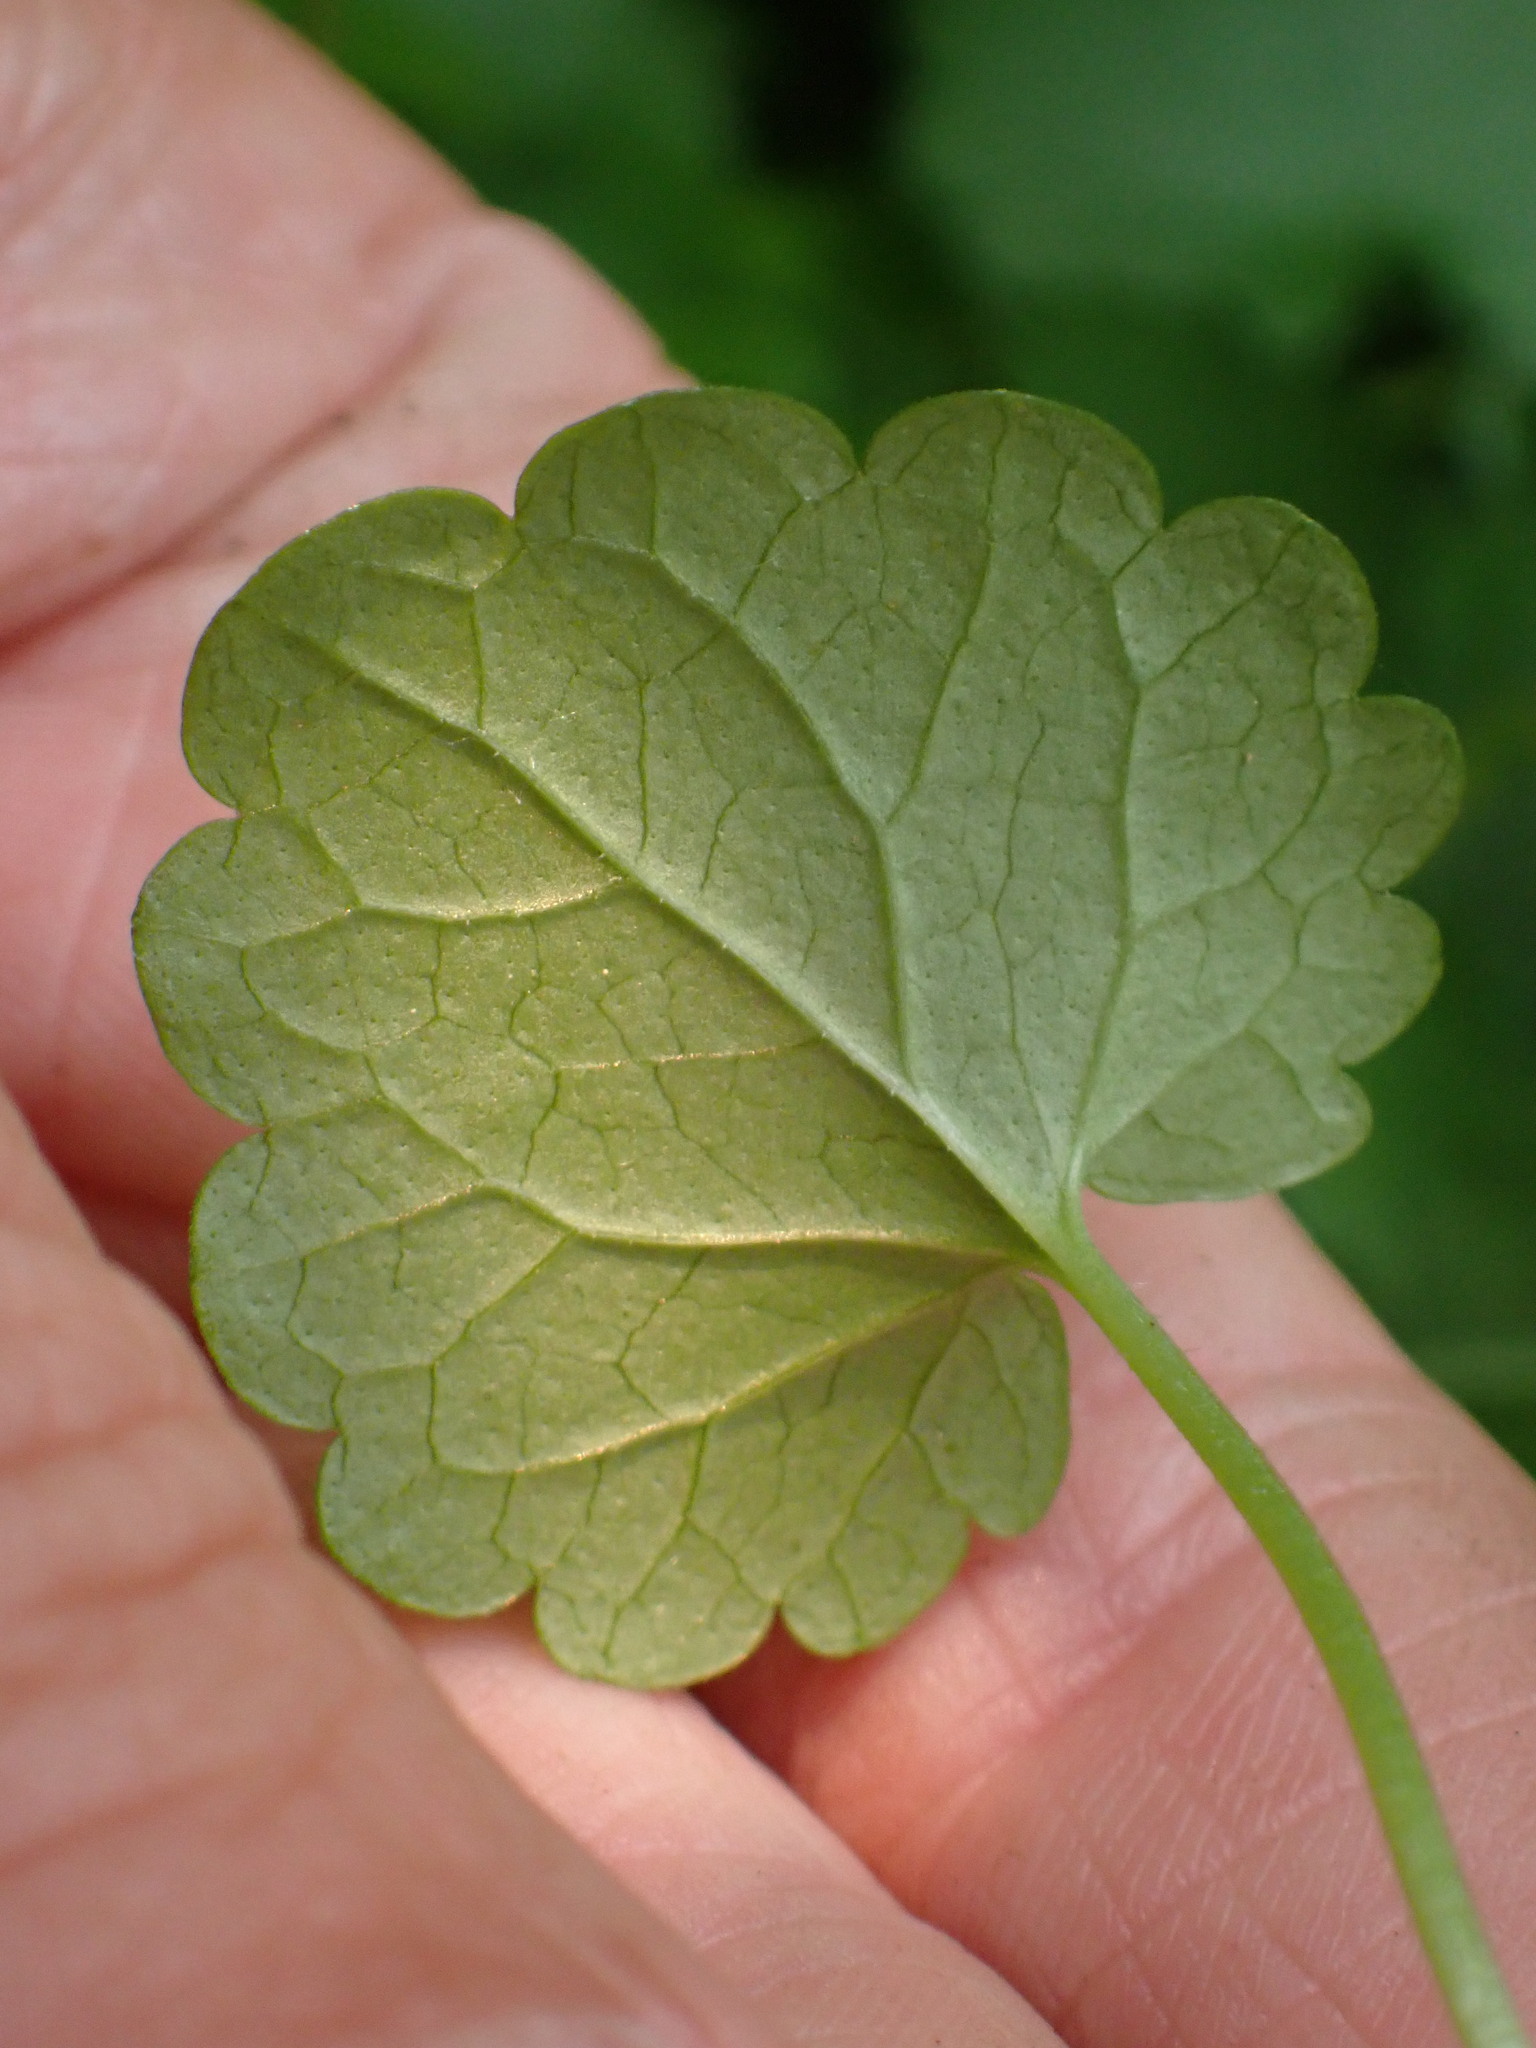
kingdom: Plantae
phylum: Tracheophyta
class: Magnoliopsida
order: Lamiales
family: Lamiaceae
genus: Glechoma
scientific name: Glechoma hederacea
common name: Ground ivy
